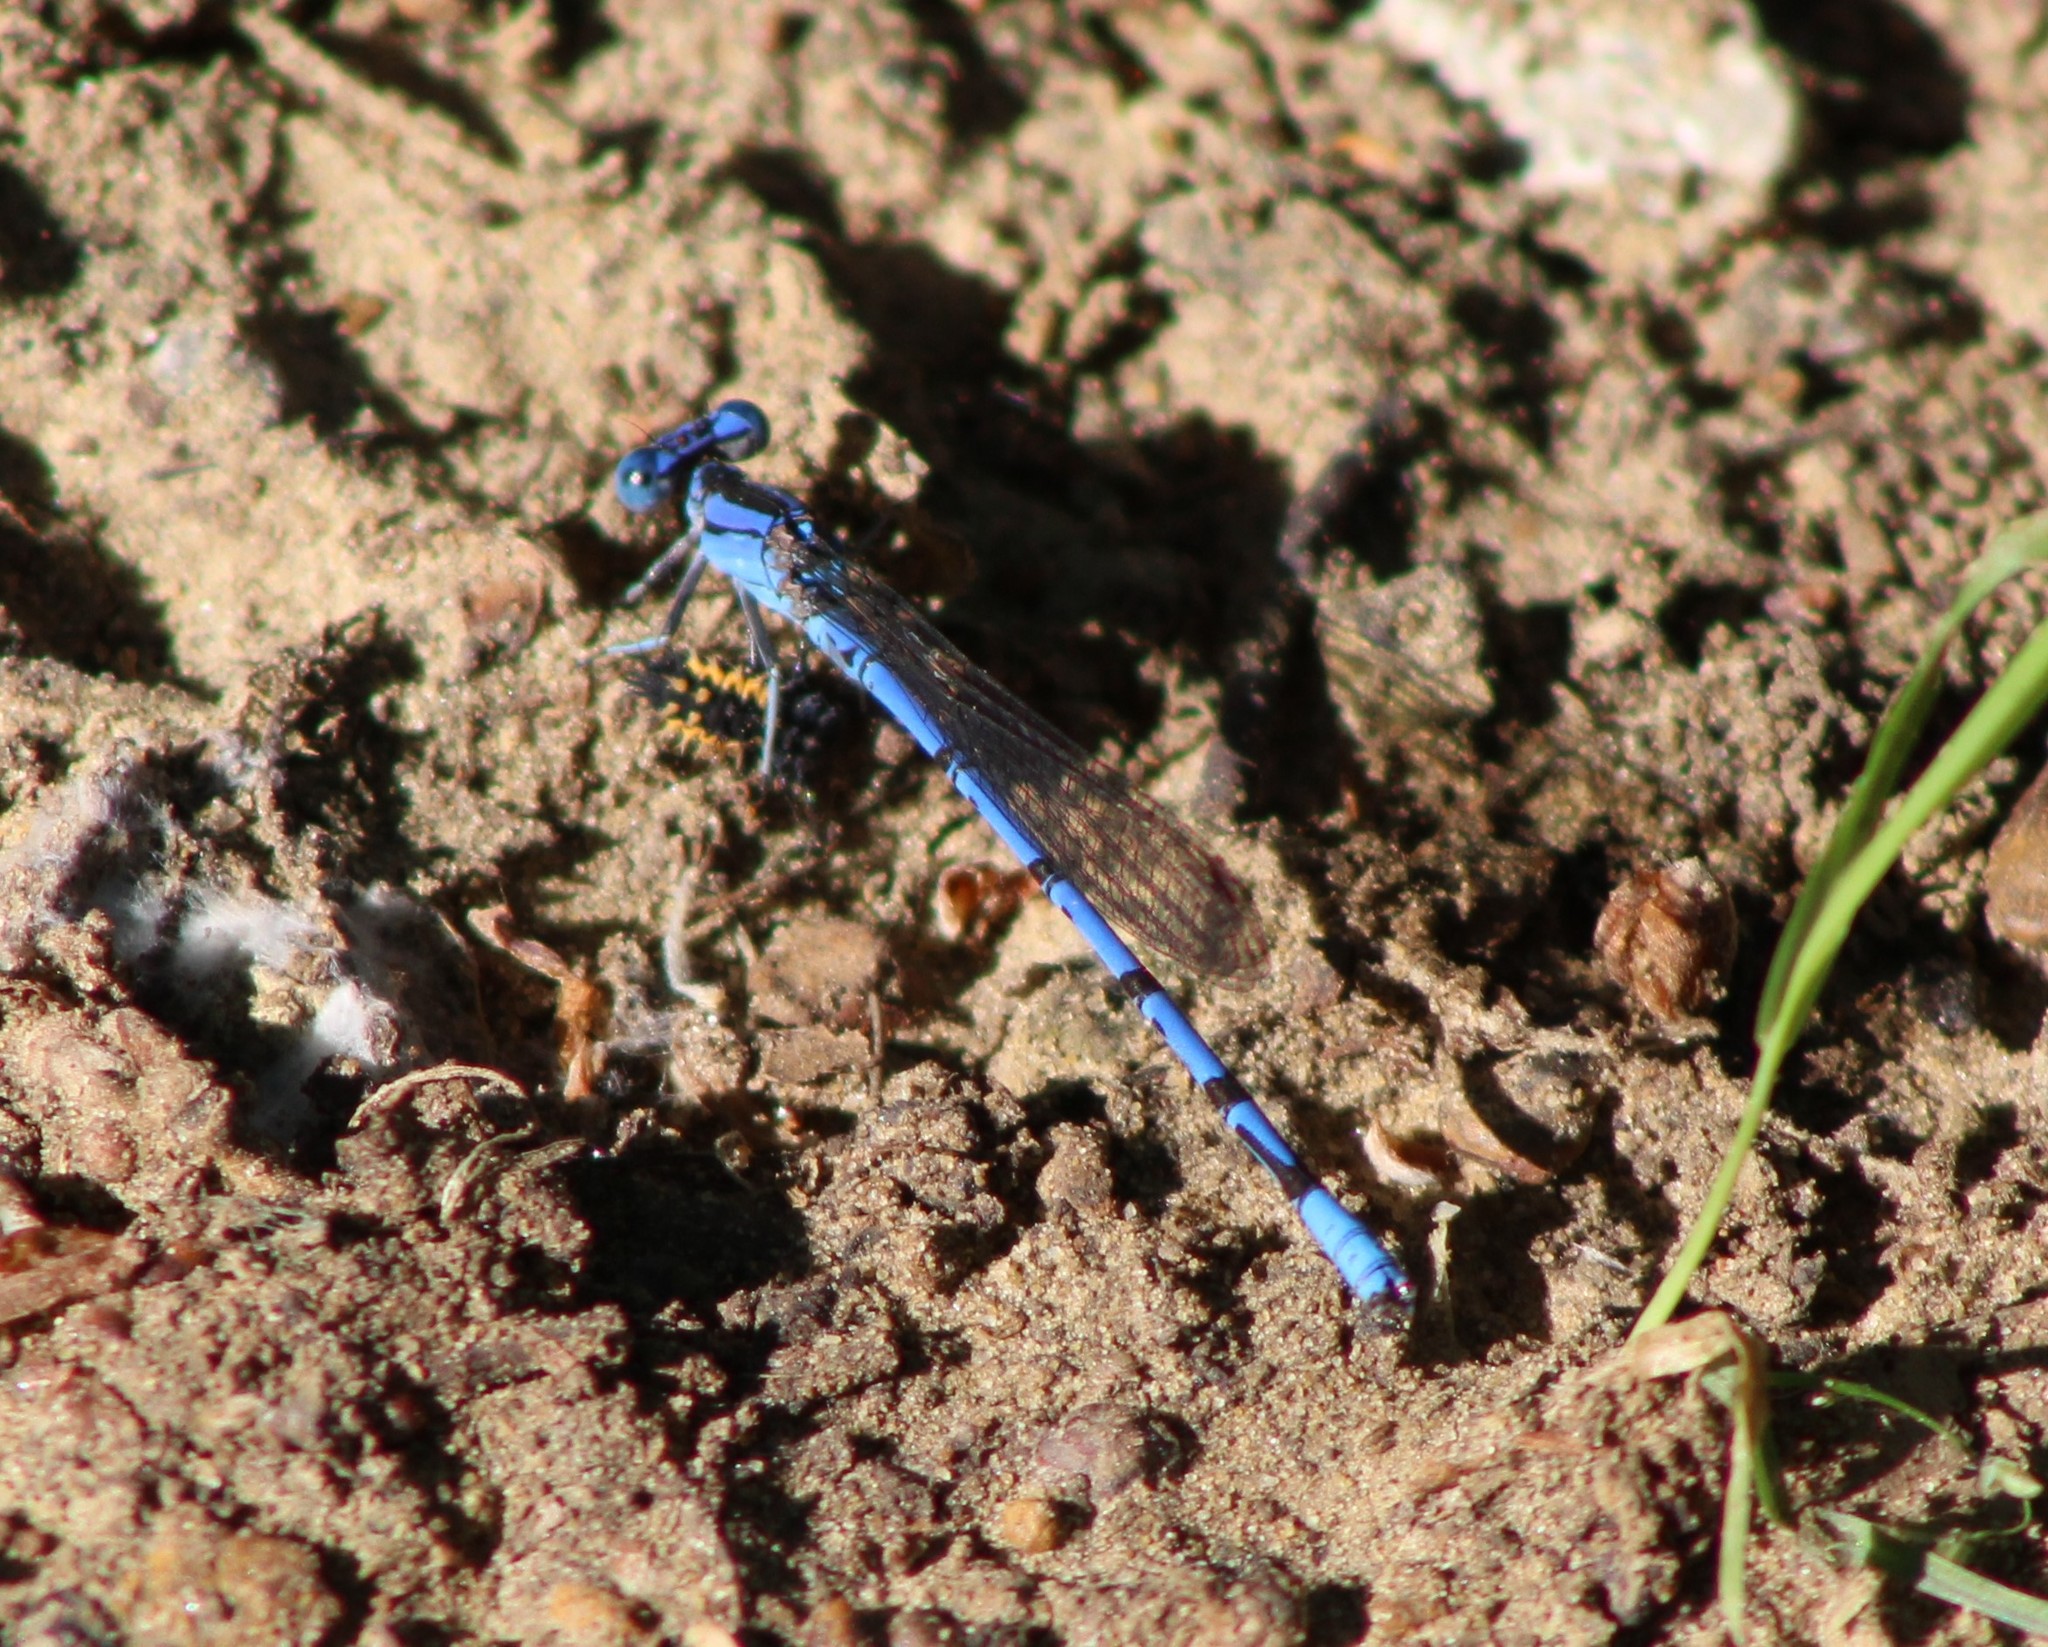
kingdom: Animalia
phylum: Arthropoda
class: Insecta
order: Odonata
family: Coenagrionidae
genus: Argia
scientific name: Argia funebris
